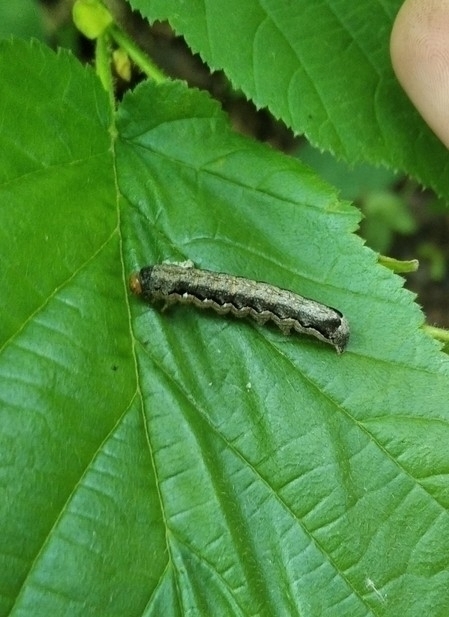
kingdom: Animalia
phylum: Arthropoda
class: Insecta
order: Lepidoptera
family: Noctuidae
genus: Anorthoa
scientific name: Anorthoa munda
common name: Twin-spotted quaker
